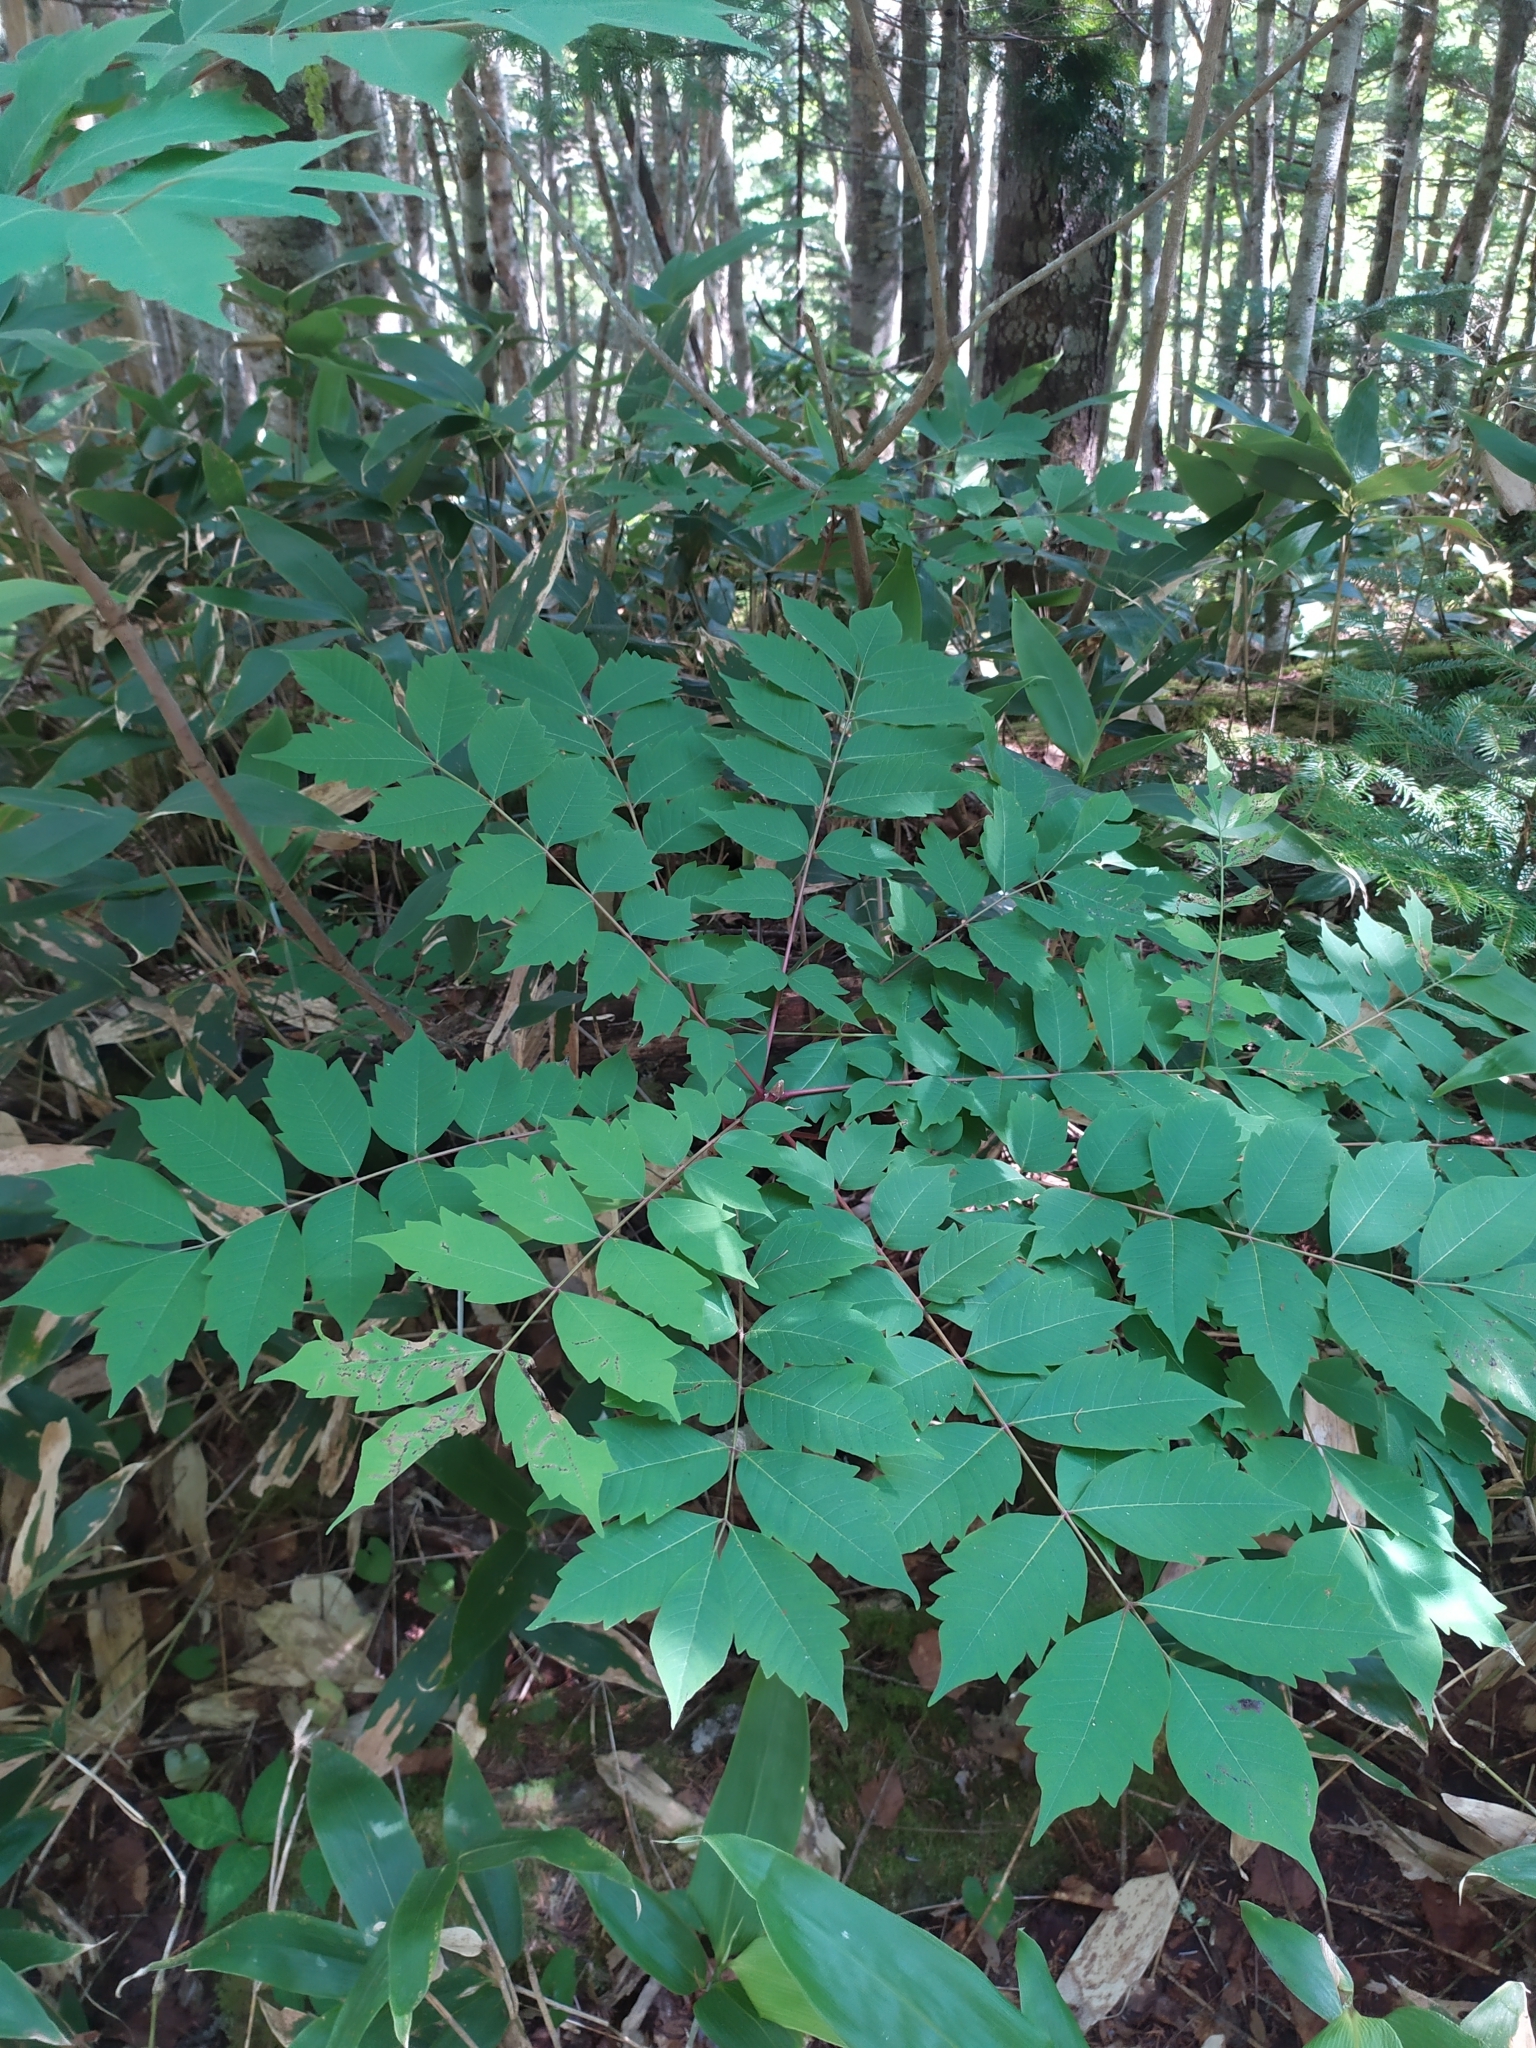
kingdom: Plantae
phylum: Tracheophyta
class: Magnoliopsida
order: Sapindales
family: Anacardiaceae
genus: Toxicodendron
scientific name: Toxicodendron trichocarpum
